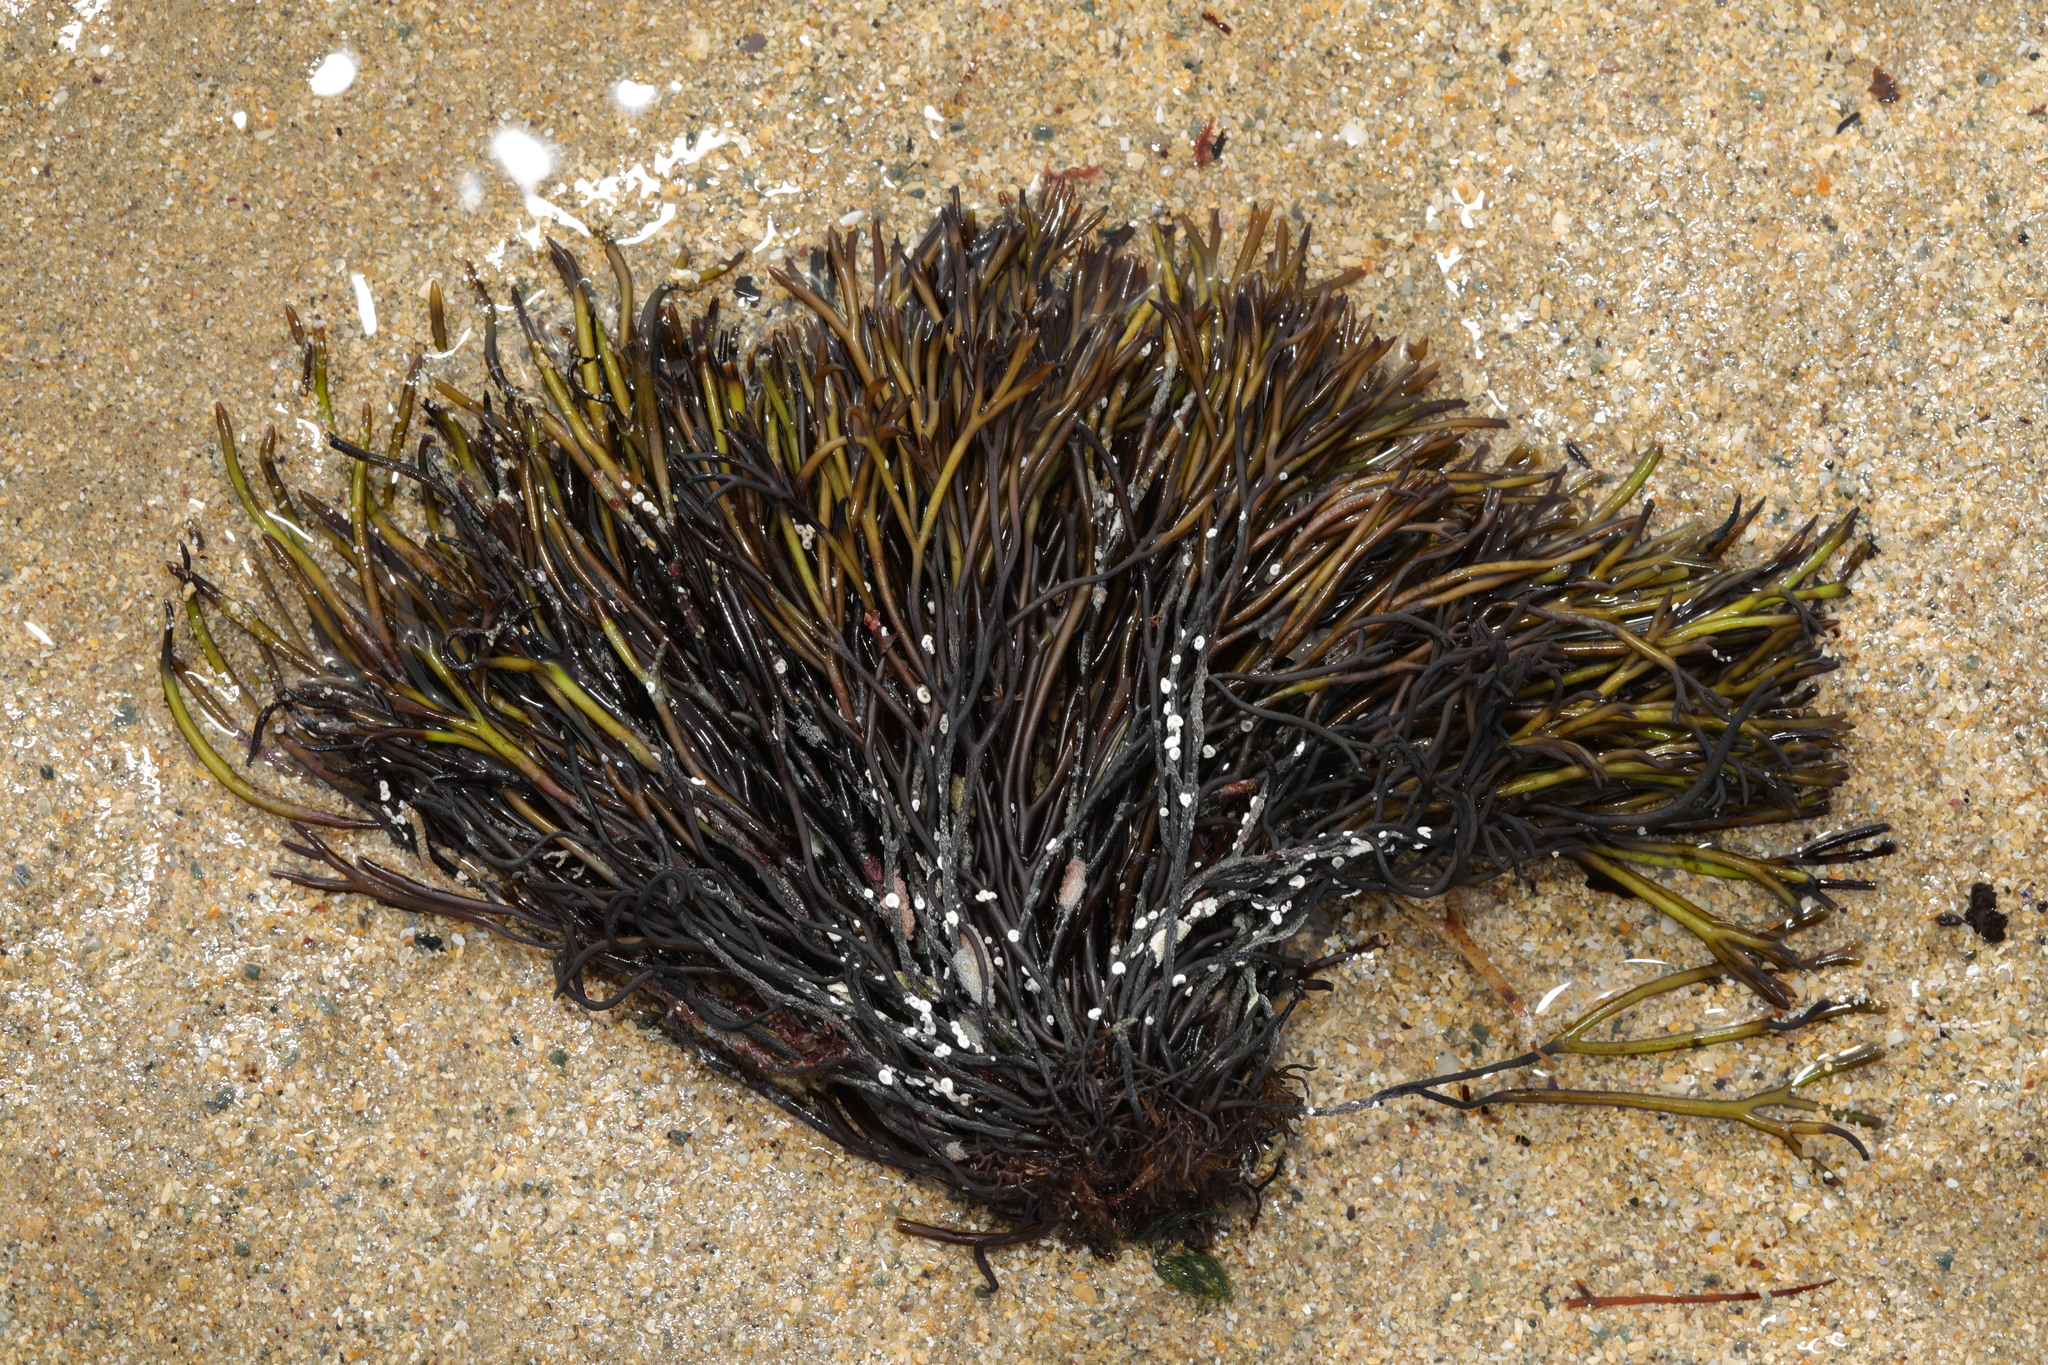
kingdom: Plantae
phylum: Rhodophyta
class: Florideophyceae
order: Gigartinales
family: Furcellariaceae
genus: Furcellaria
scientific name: Furcellaria lumbricalis
